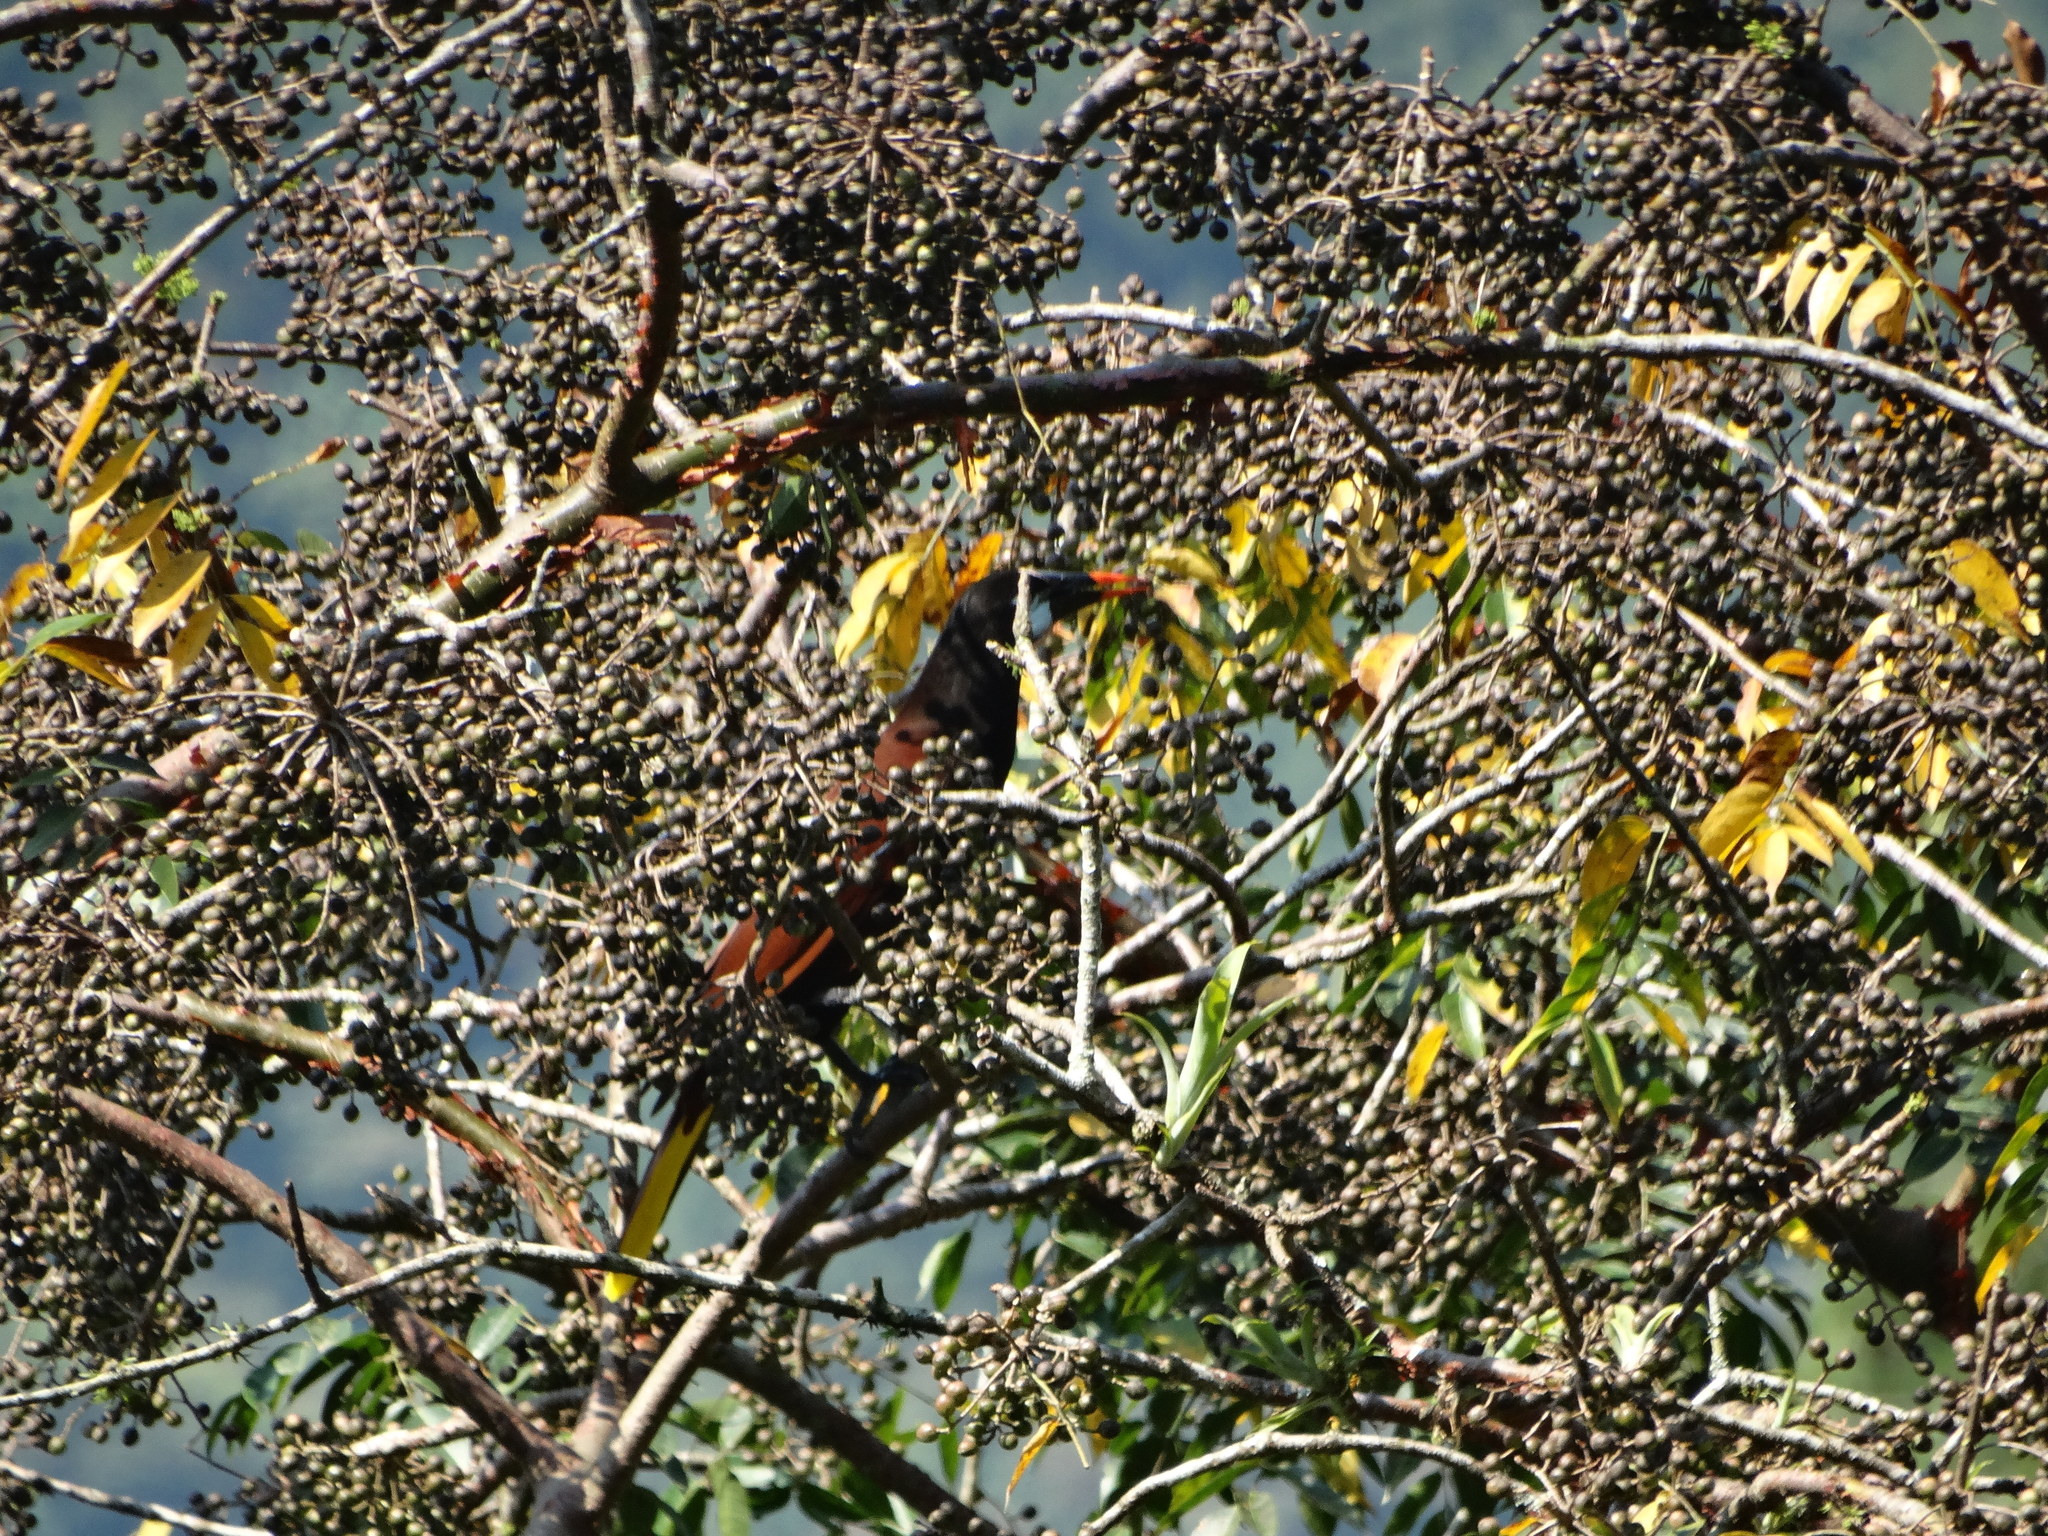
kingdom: Animalia
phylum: Chordata
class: Aves
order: Passeriformes
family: Icteridae
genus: Psarocolius
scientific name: Psarocolius montezuma
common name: Montezuma oropendola
